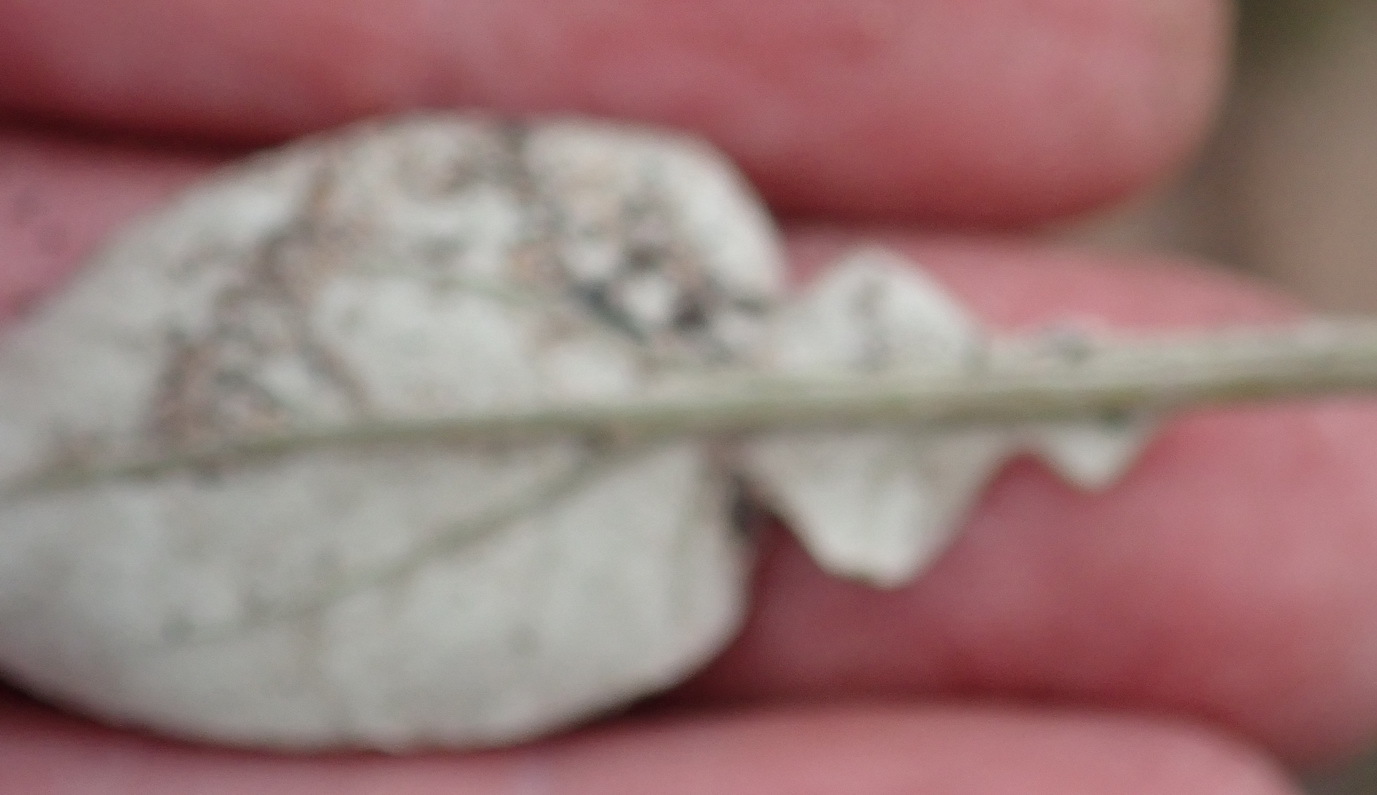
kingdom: Plantae
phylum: Tracheophyta
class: Magnoliopsida
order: Asterales
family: Asteraceae
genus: Haplocarpha
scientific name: Haplocarpha lyrata
